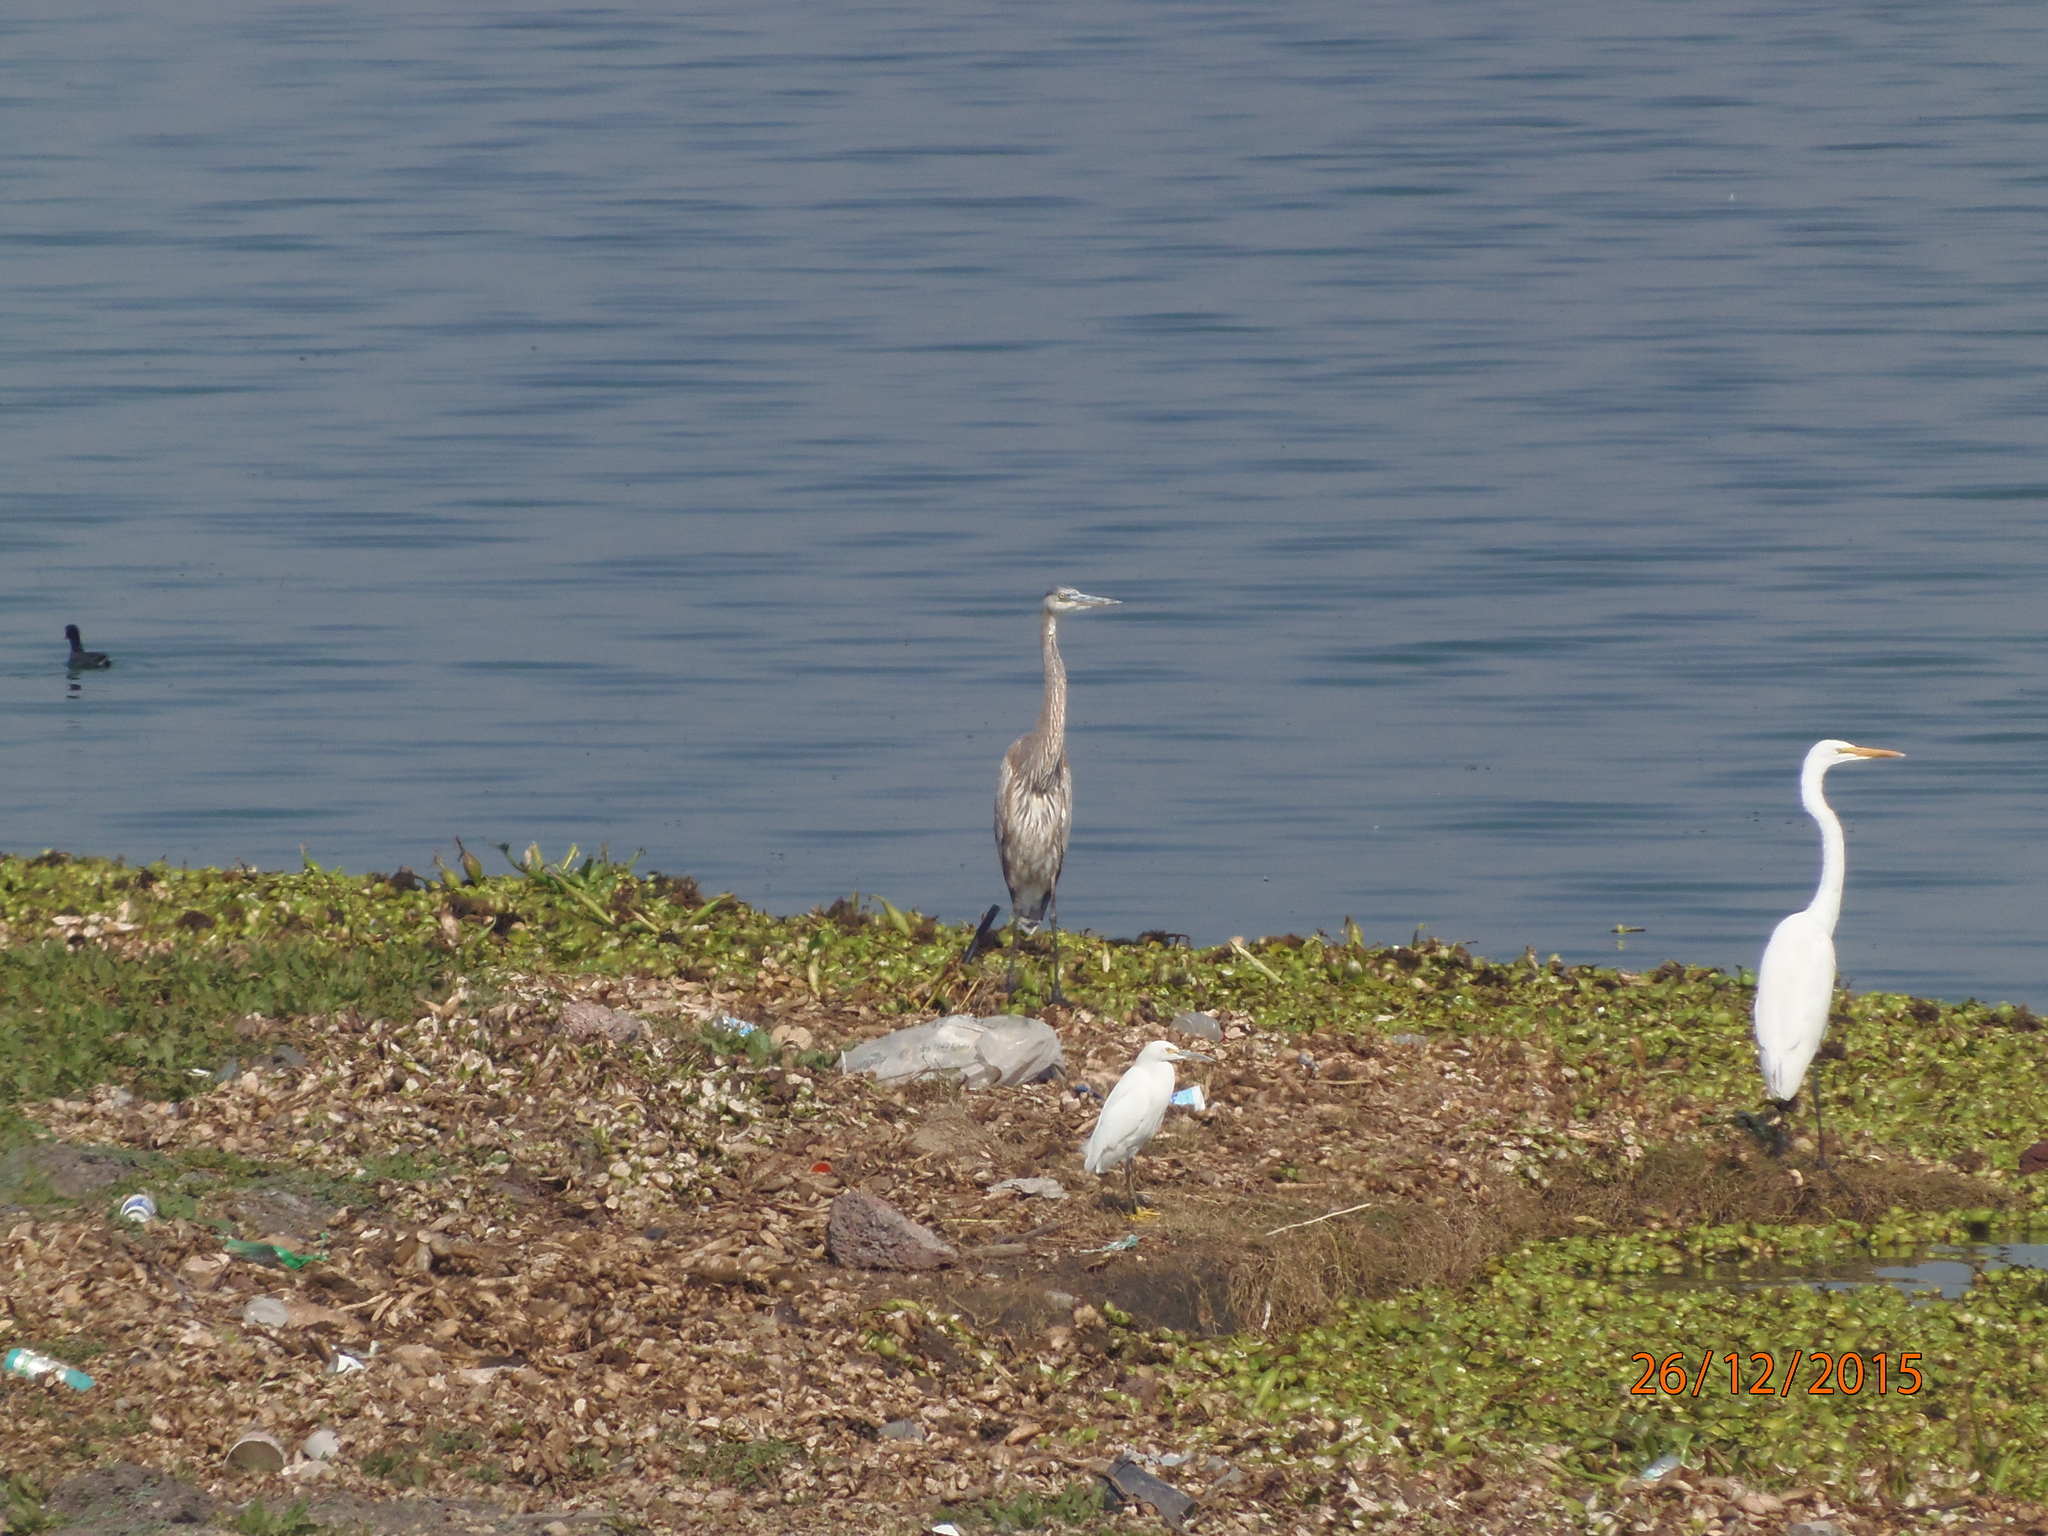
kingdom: Animalia
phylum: Chordata
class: Aves
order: Pelecaniformes
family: Ardeidae
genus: Ardea
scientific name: Ardea herodias
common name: Great blue heron
